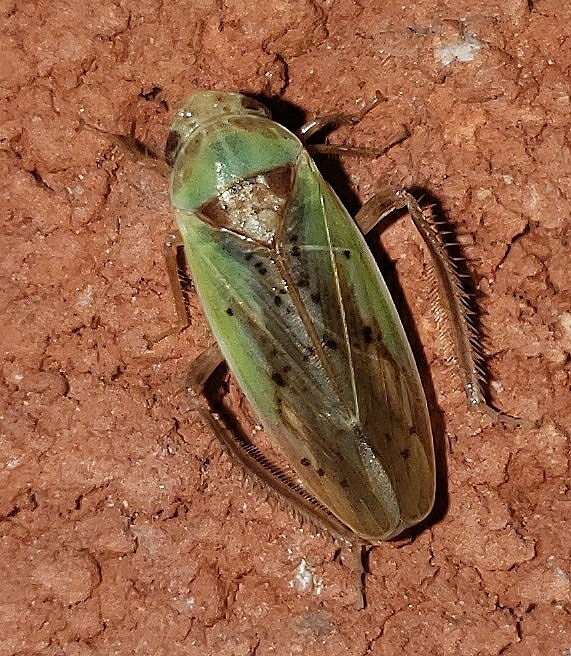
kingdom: Animalia
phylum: Arthropoda
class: Insecta
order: Hemiptera
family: Cicadellidae
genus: Ponana
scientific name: Ponana pectoralis
